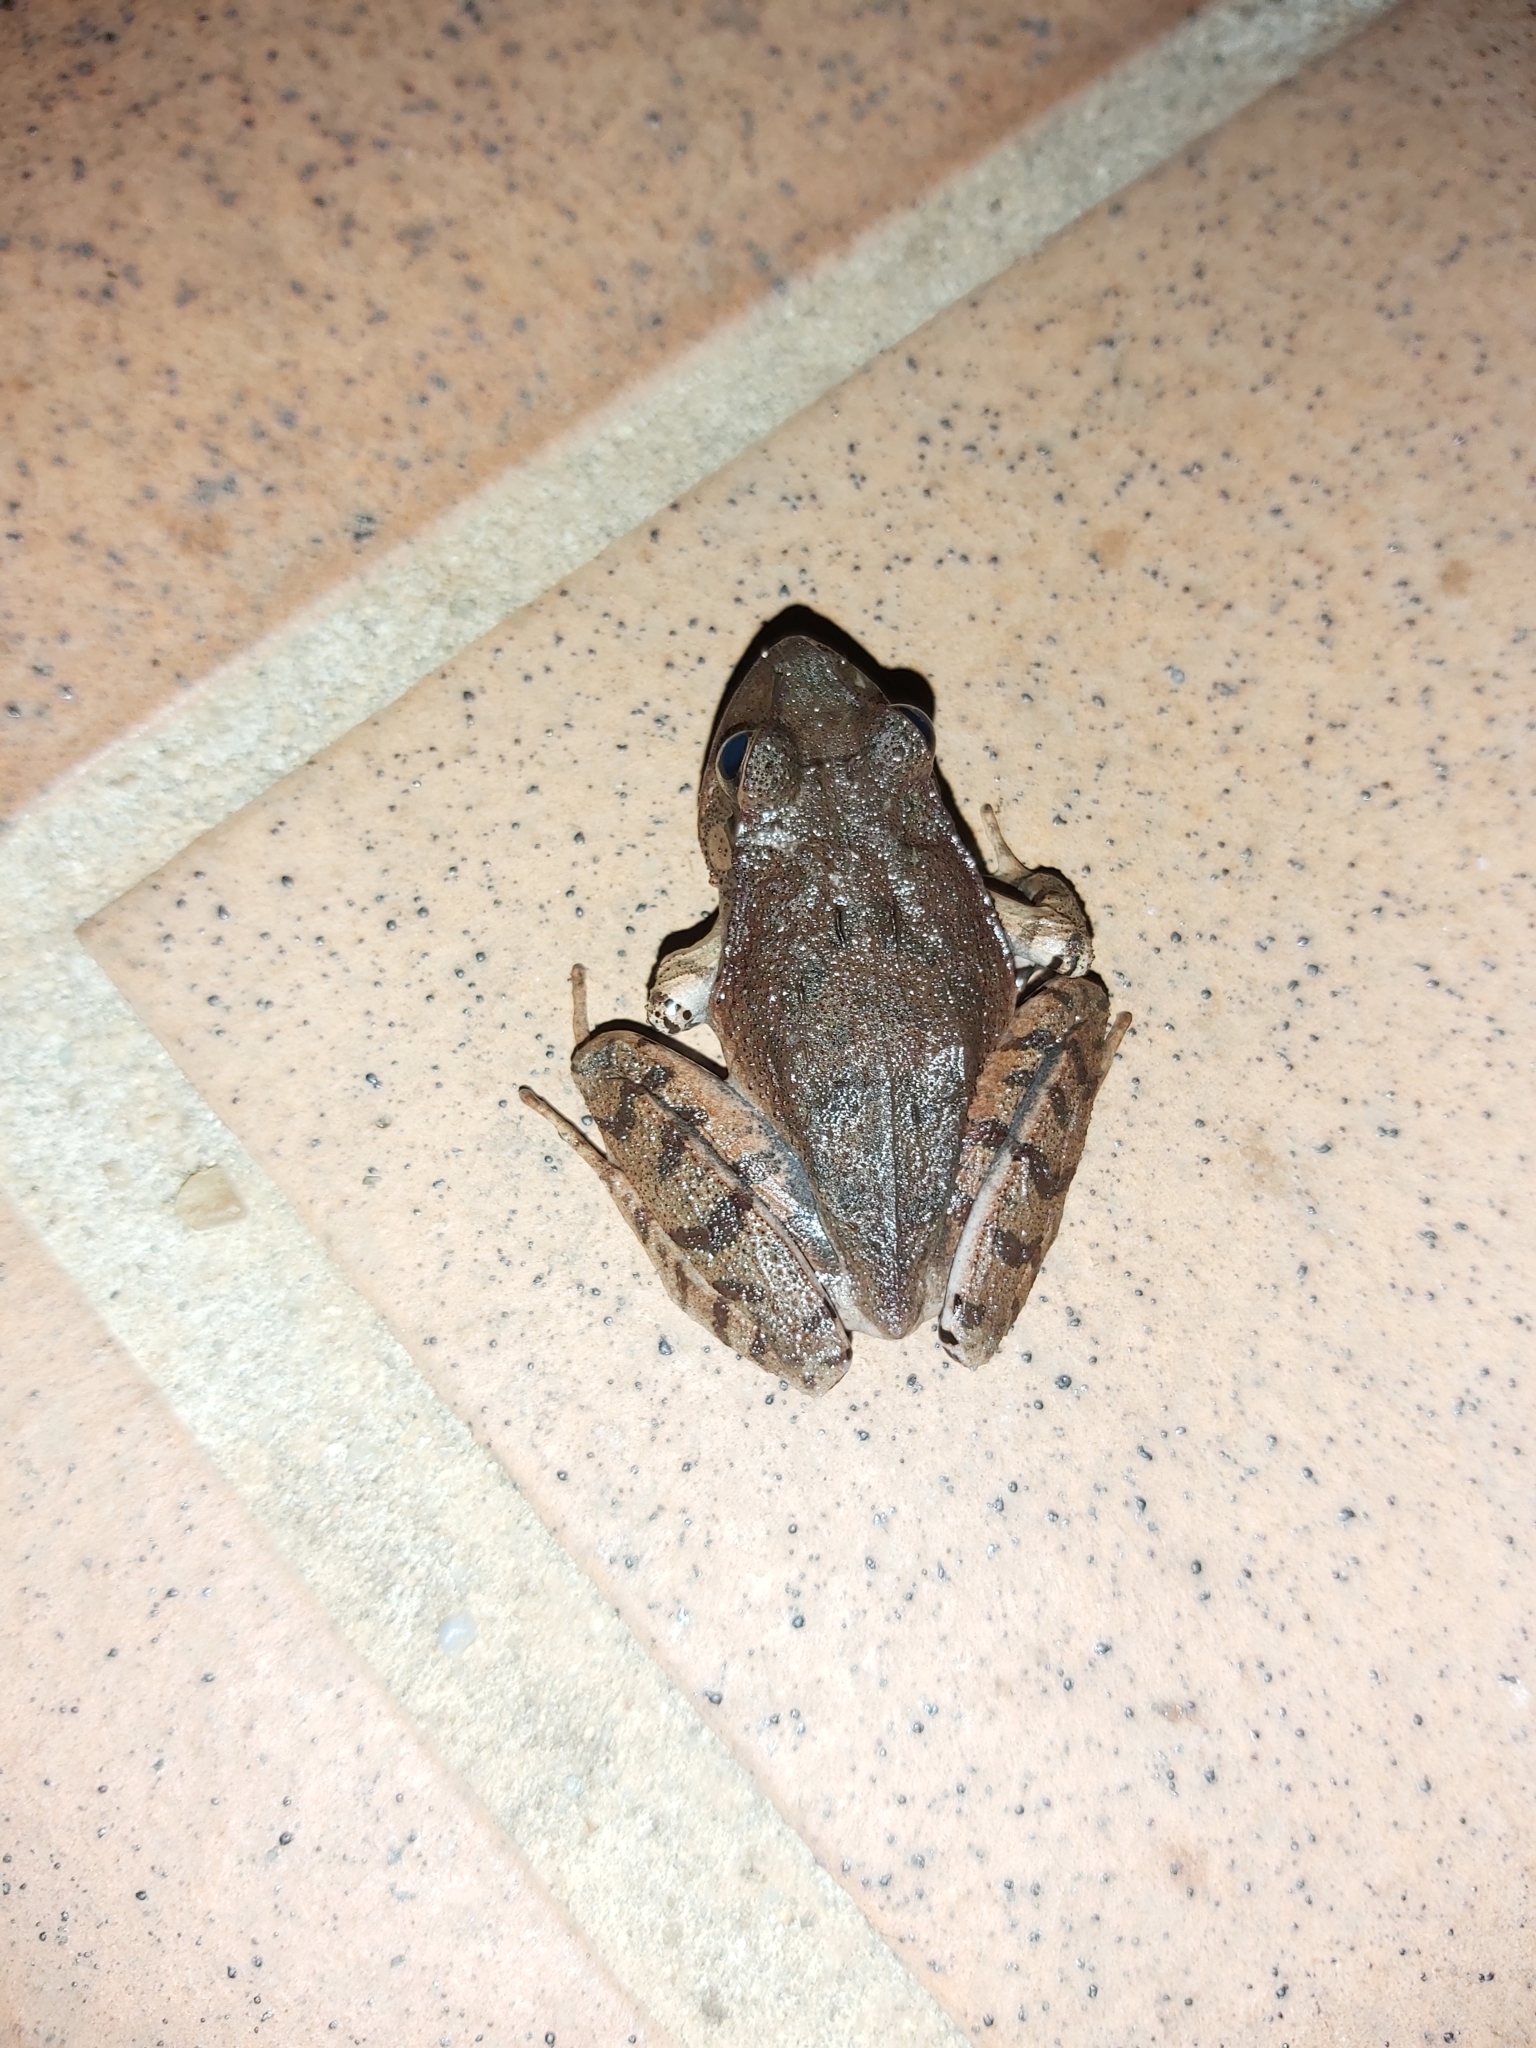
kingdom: Animalia
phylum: Chordata
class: Amphibia
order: Anura
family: Limnodynastidae
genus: Platyplectrum
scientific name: Platyplectrum
